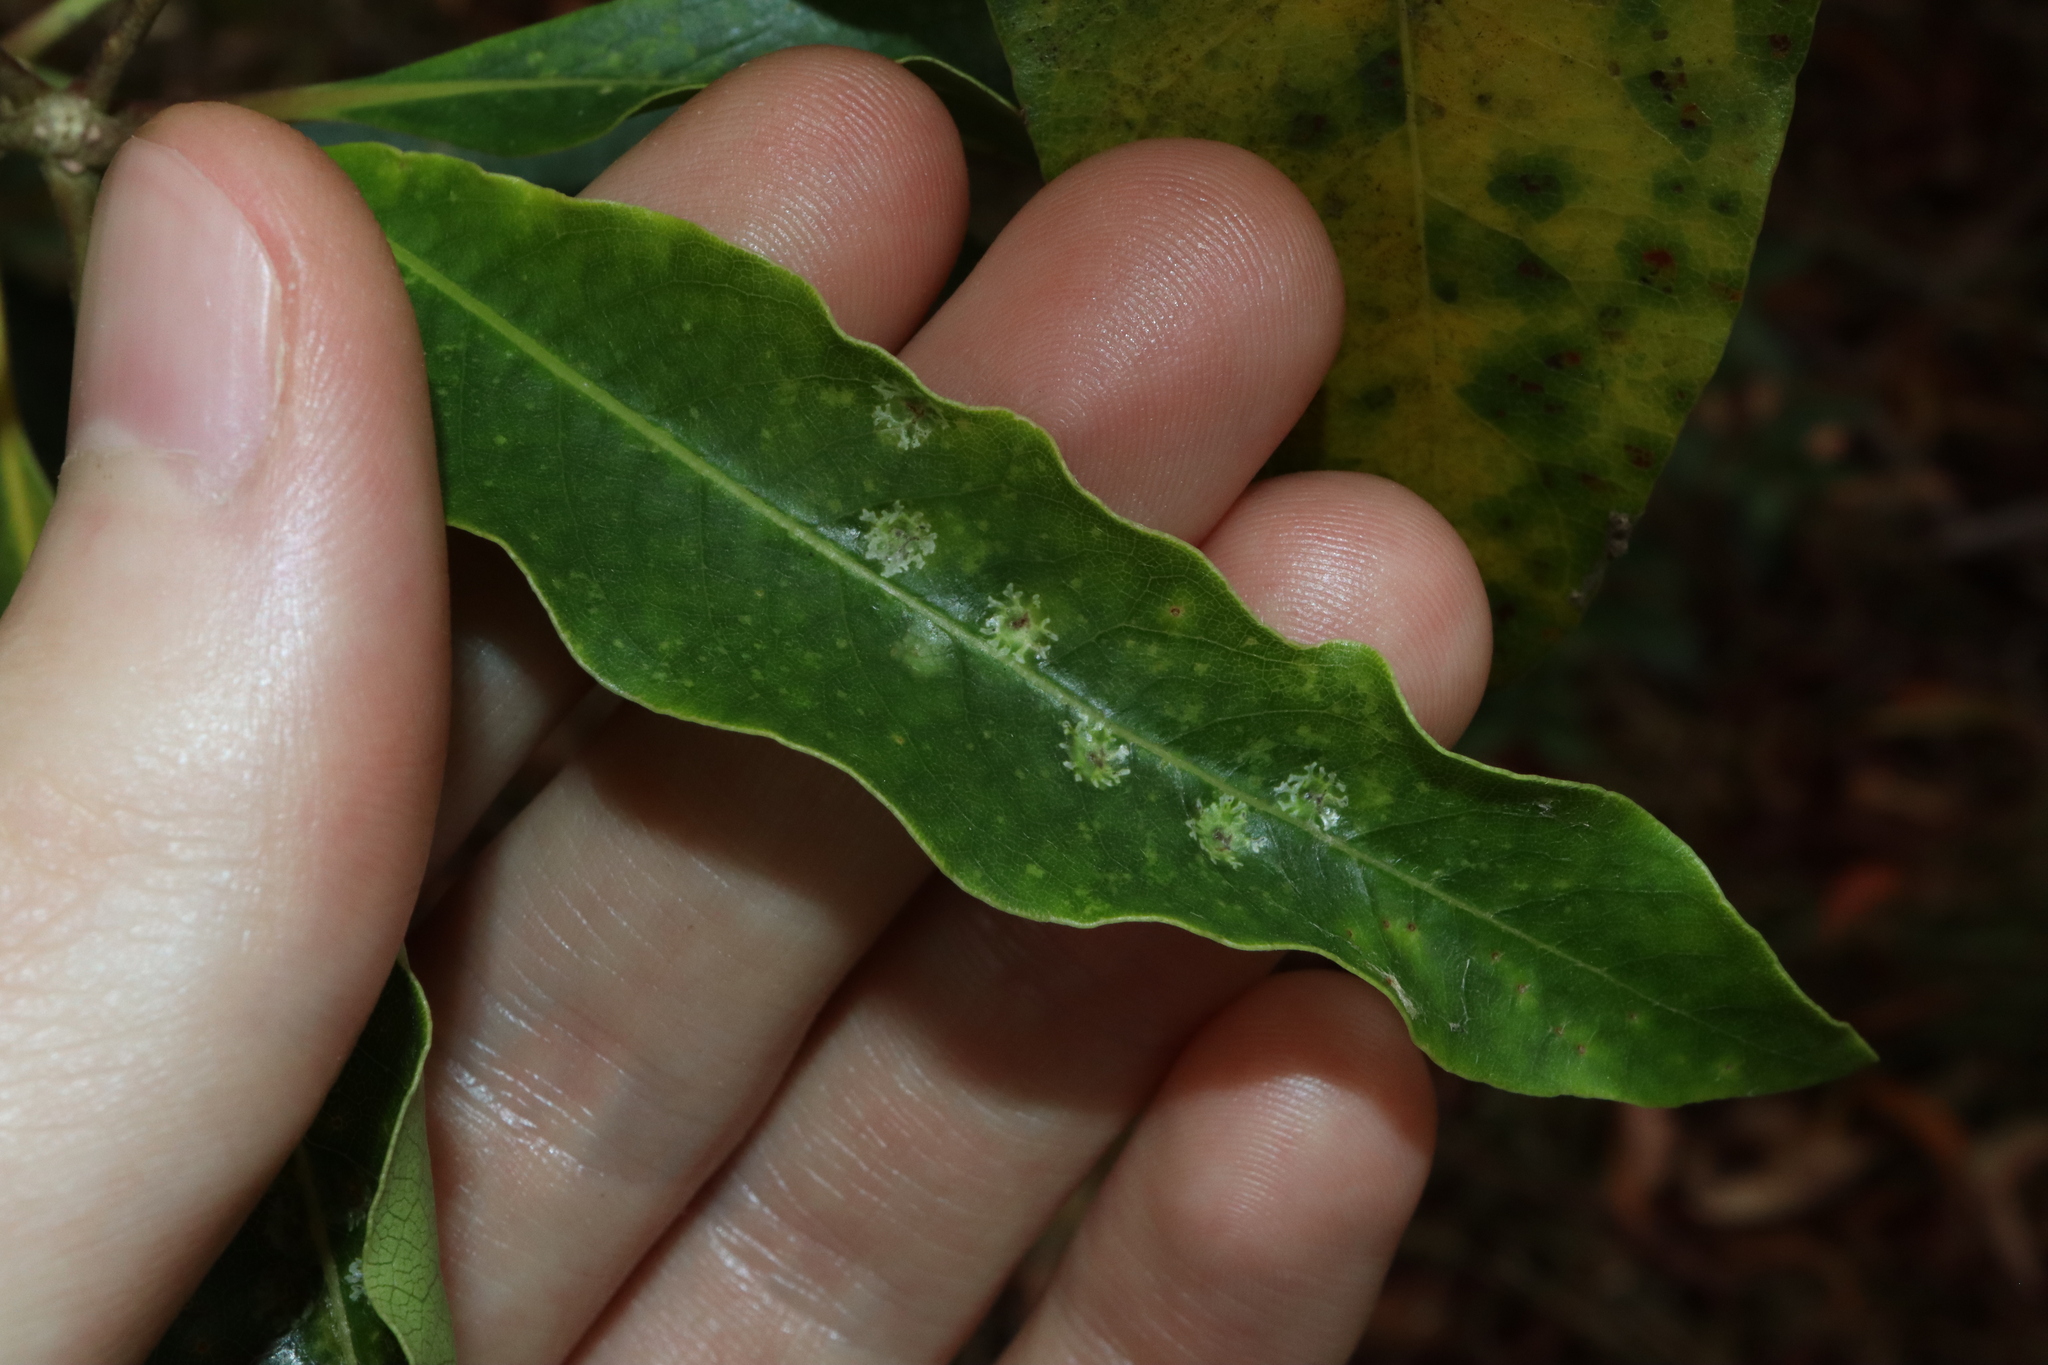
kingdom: Animalia
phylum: Arthropoda
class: Insecta
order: Diptera
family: Agromyzidae
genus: Phytoliriomyza
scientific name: Phytoliriomyza pittosporophylli
